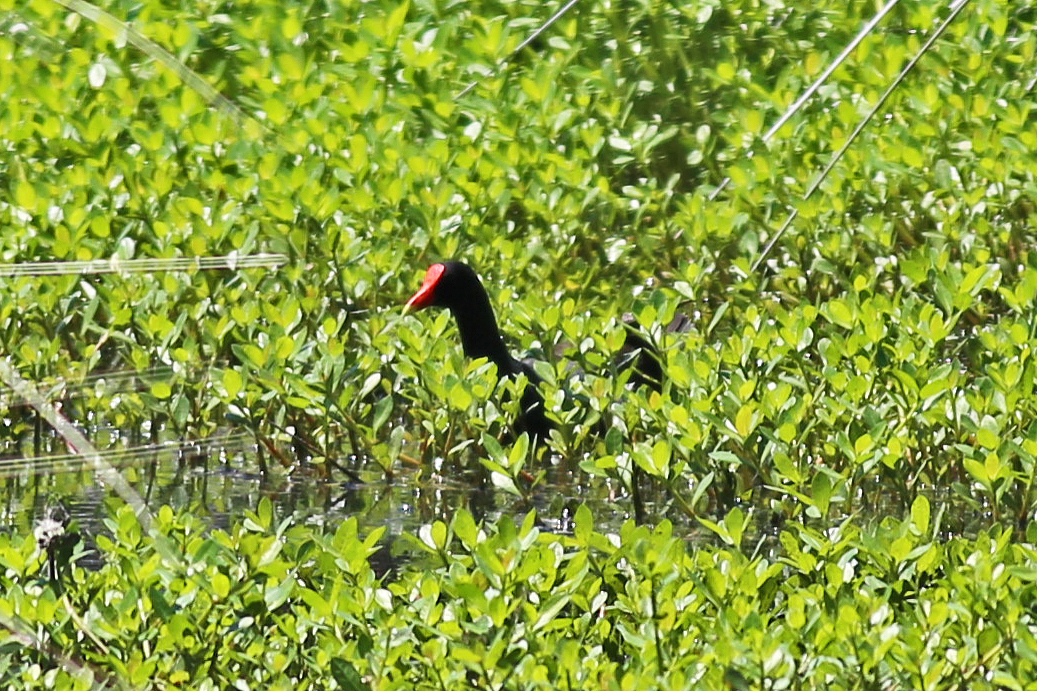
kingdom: Animalia
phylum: Chordata
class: Aves
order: Gruiformes
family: Rallidae
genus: Gallinula
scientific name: Gallinula chloropus
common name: Common moorhen
